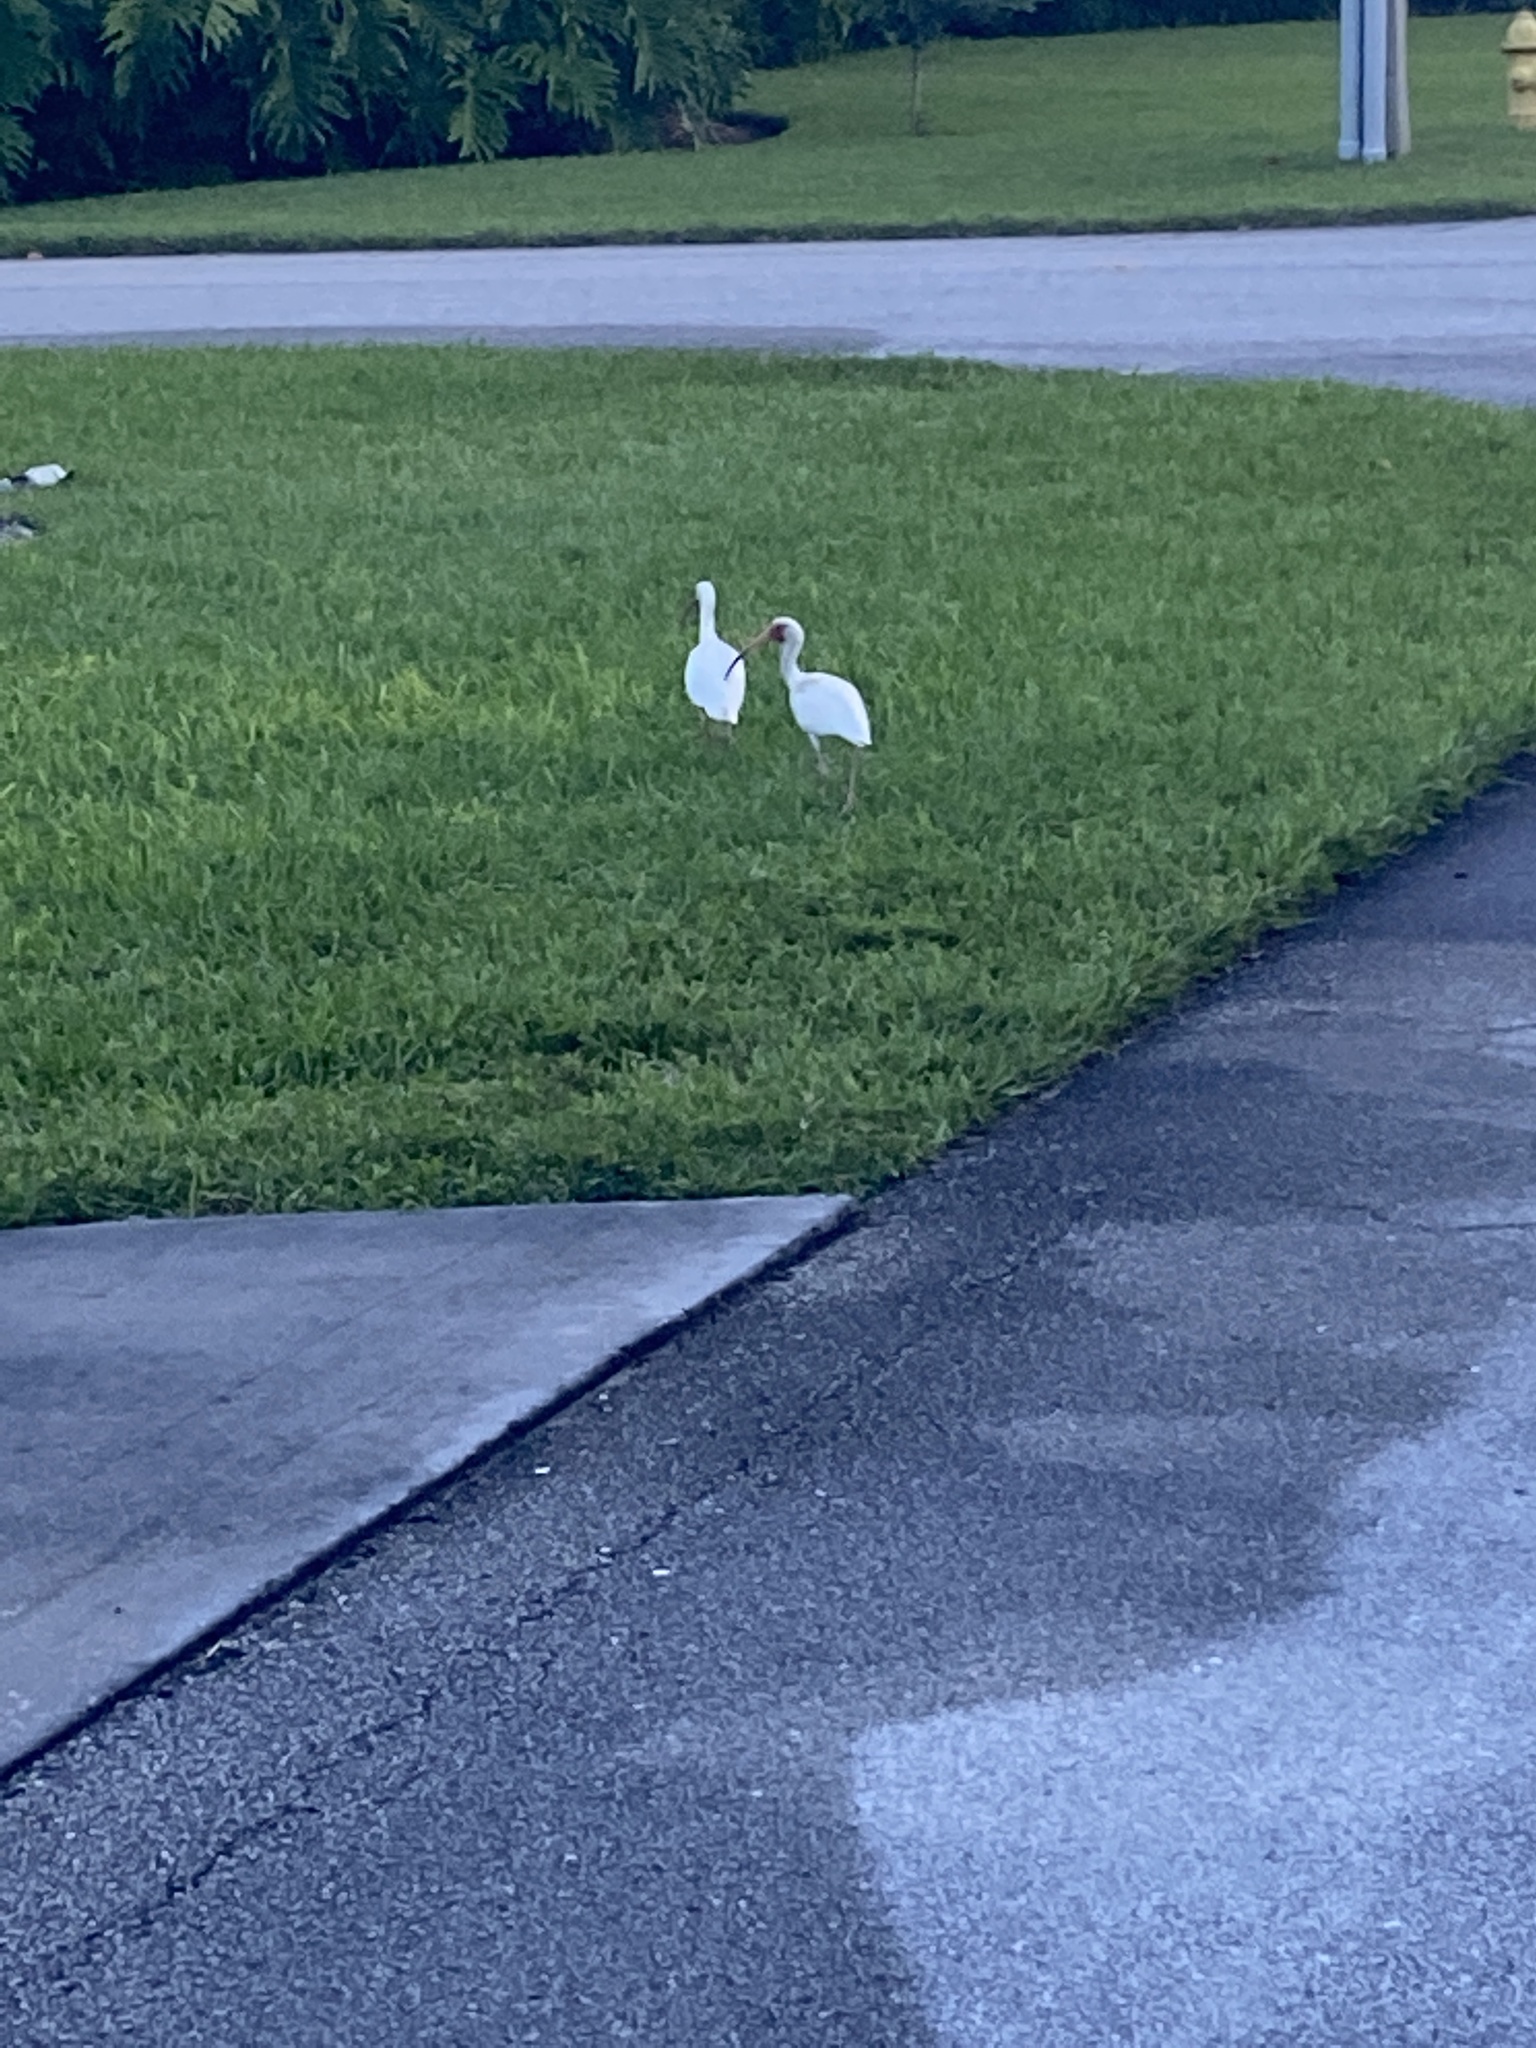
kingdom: Animalia
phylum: Chordata
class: Aves
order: Pelecaniformes
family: Threskiornithidae
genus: Eudocimus
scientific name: Eudocimus albus
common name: White ibis
